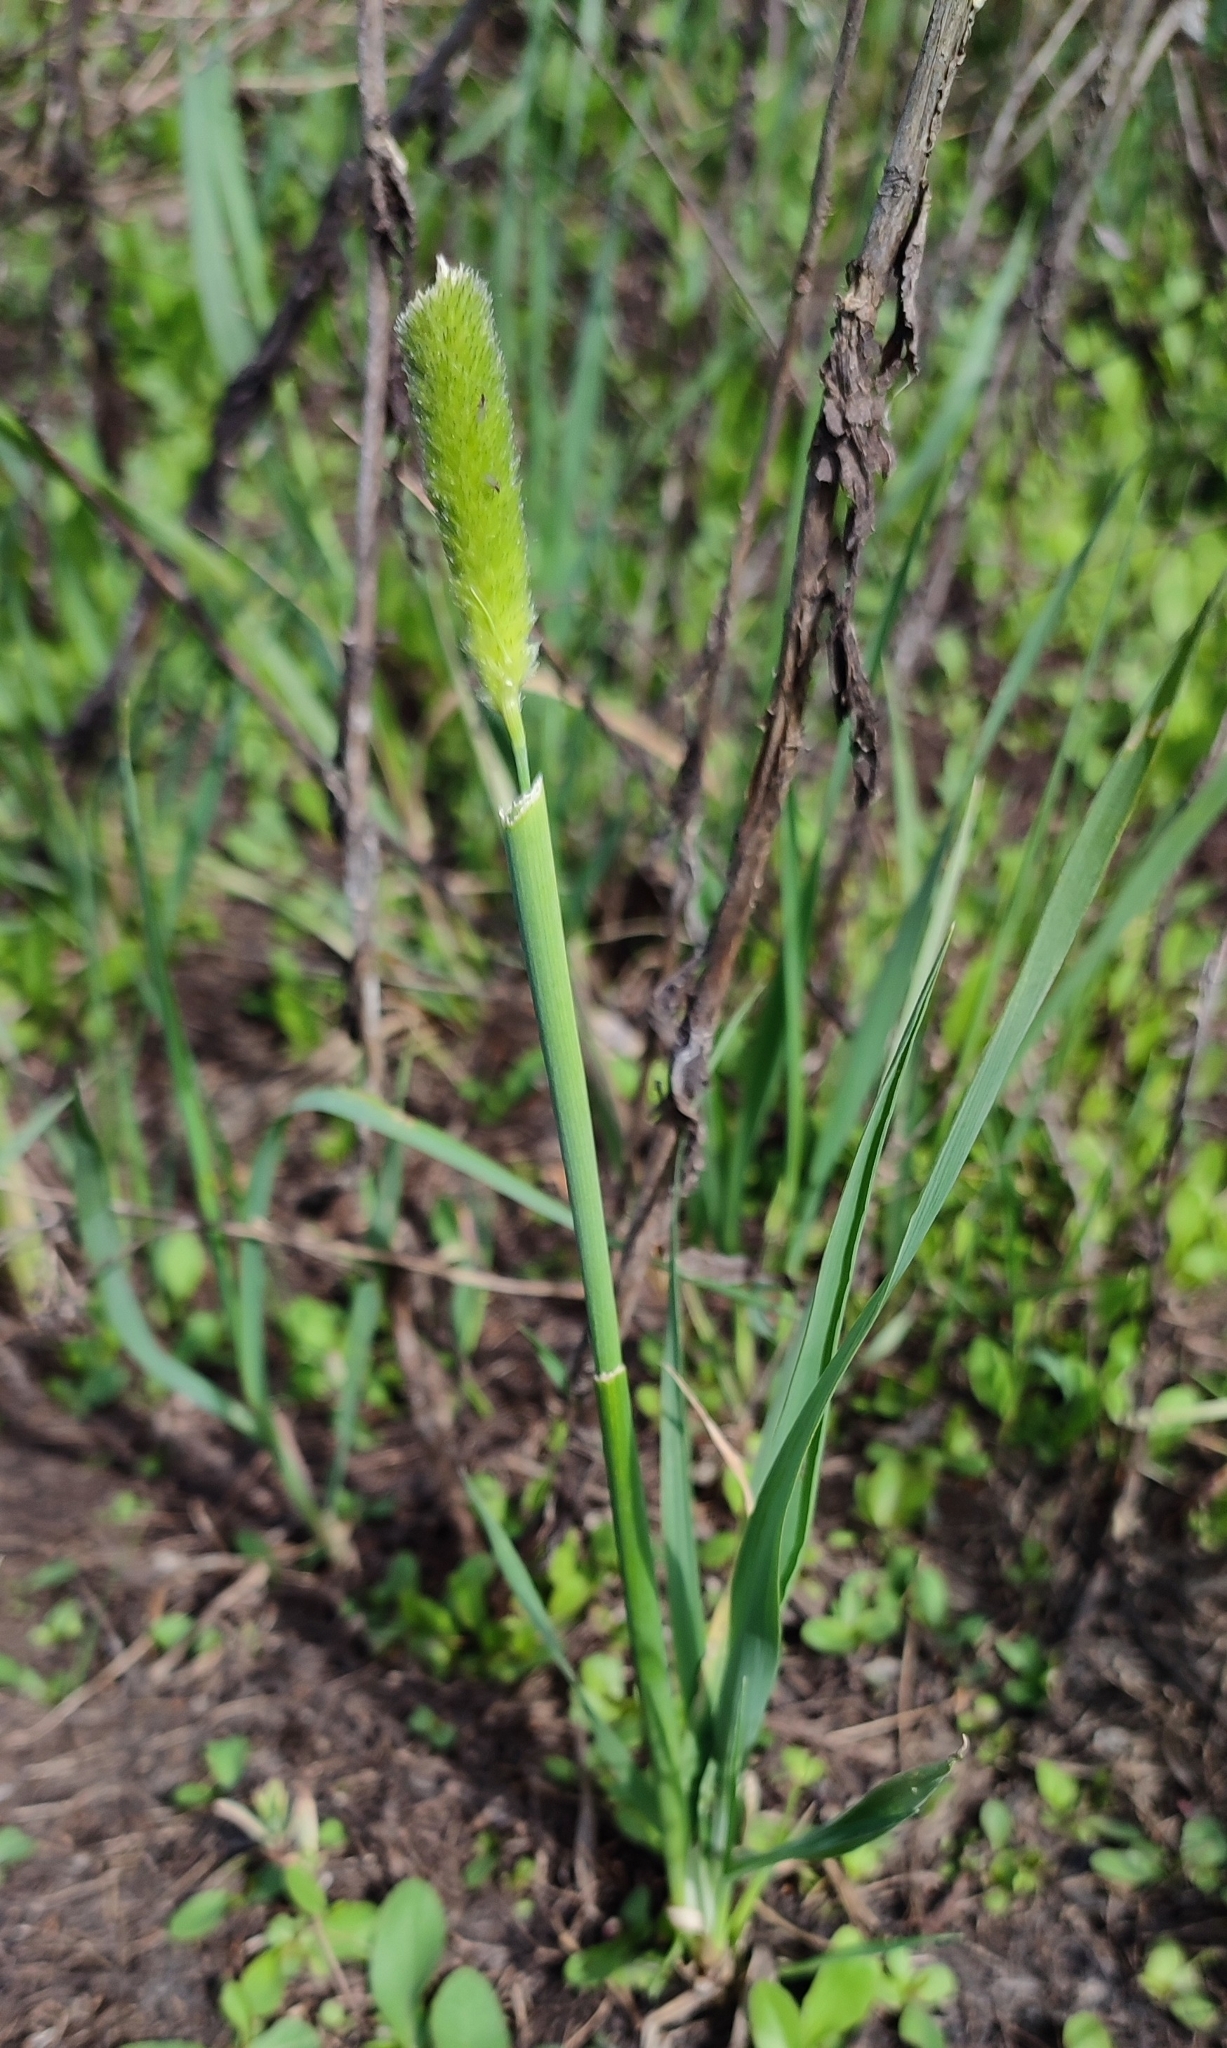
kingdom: Plantae
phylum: Tracheophyta
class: Liliopsida
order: Poales
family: Poaceae
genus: Alopecurus
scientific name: Alopecurus arundinaceus
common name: Creeping meadow foxtail
